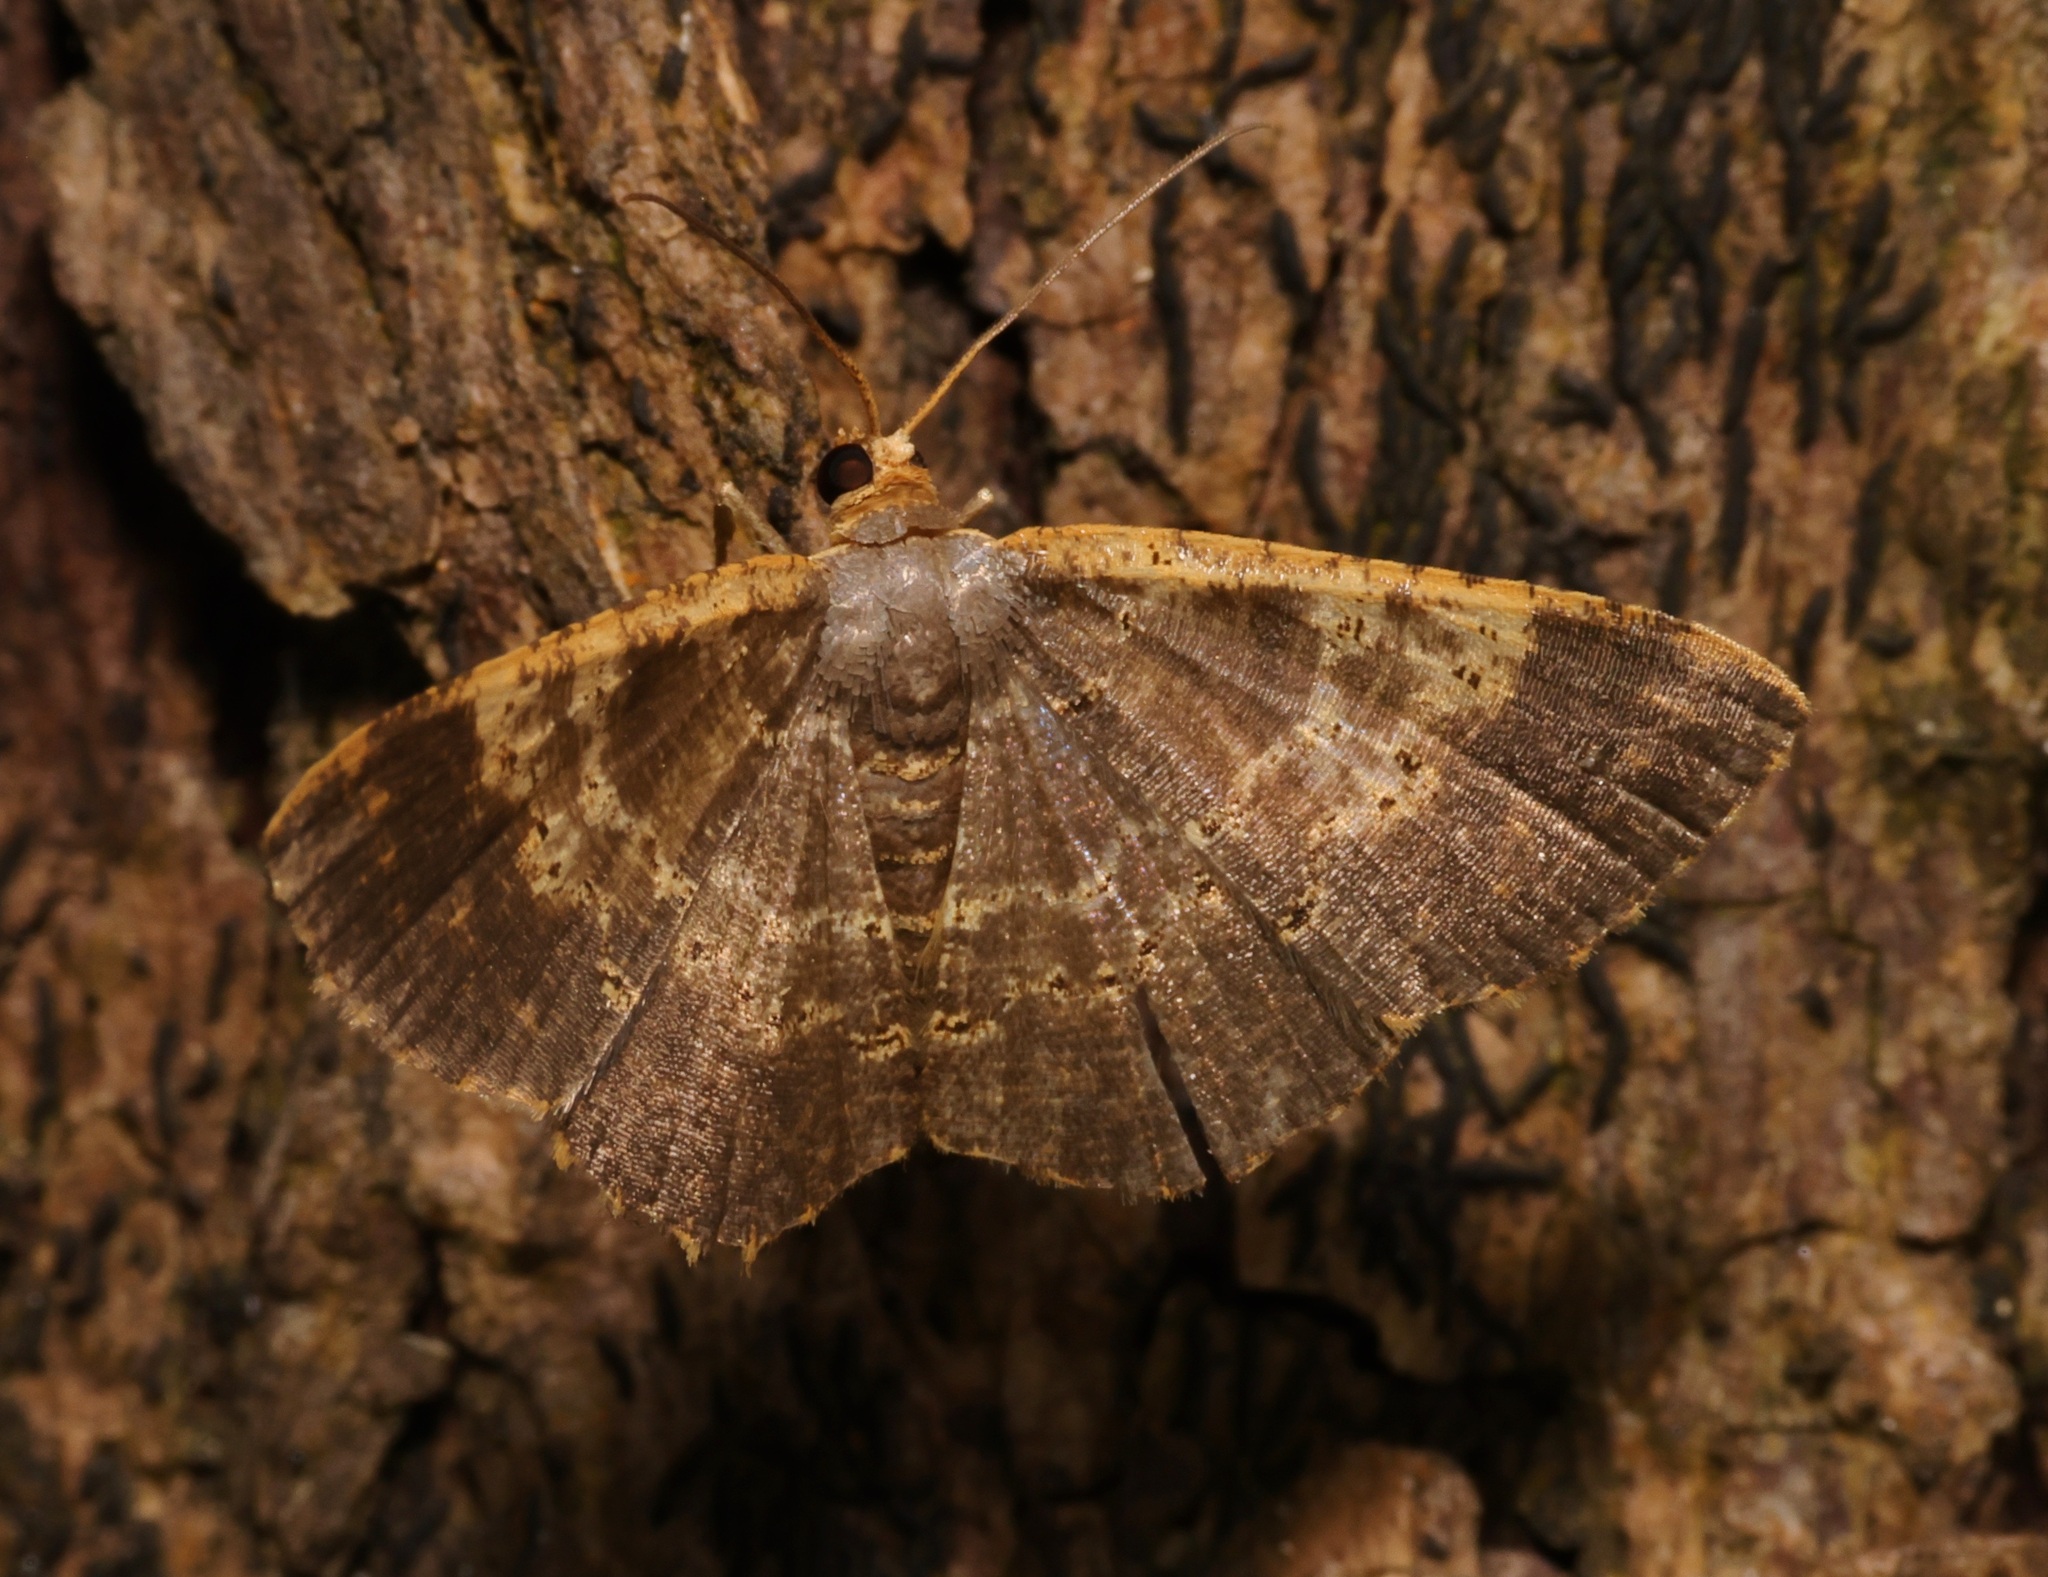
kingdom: Animalia
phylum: Arthropoda
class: Insecta
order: Lepidoptera
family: Geometridae
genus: Peratophyga
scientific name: Peratophyga crista
